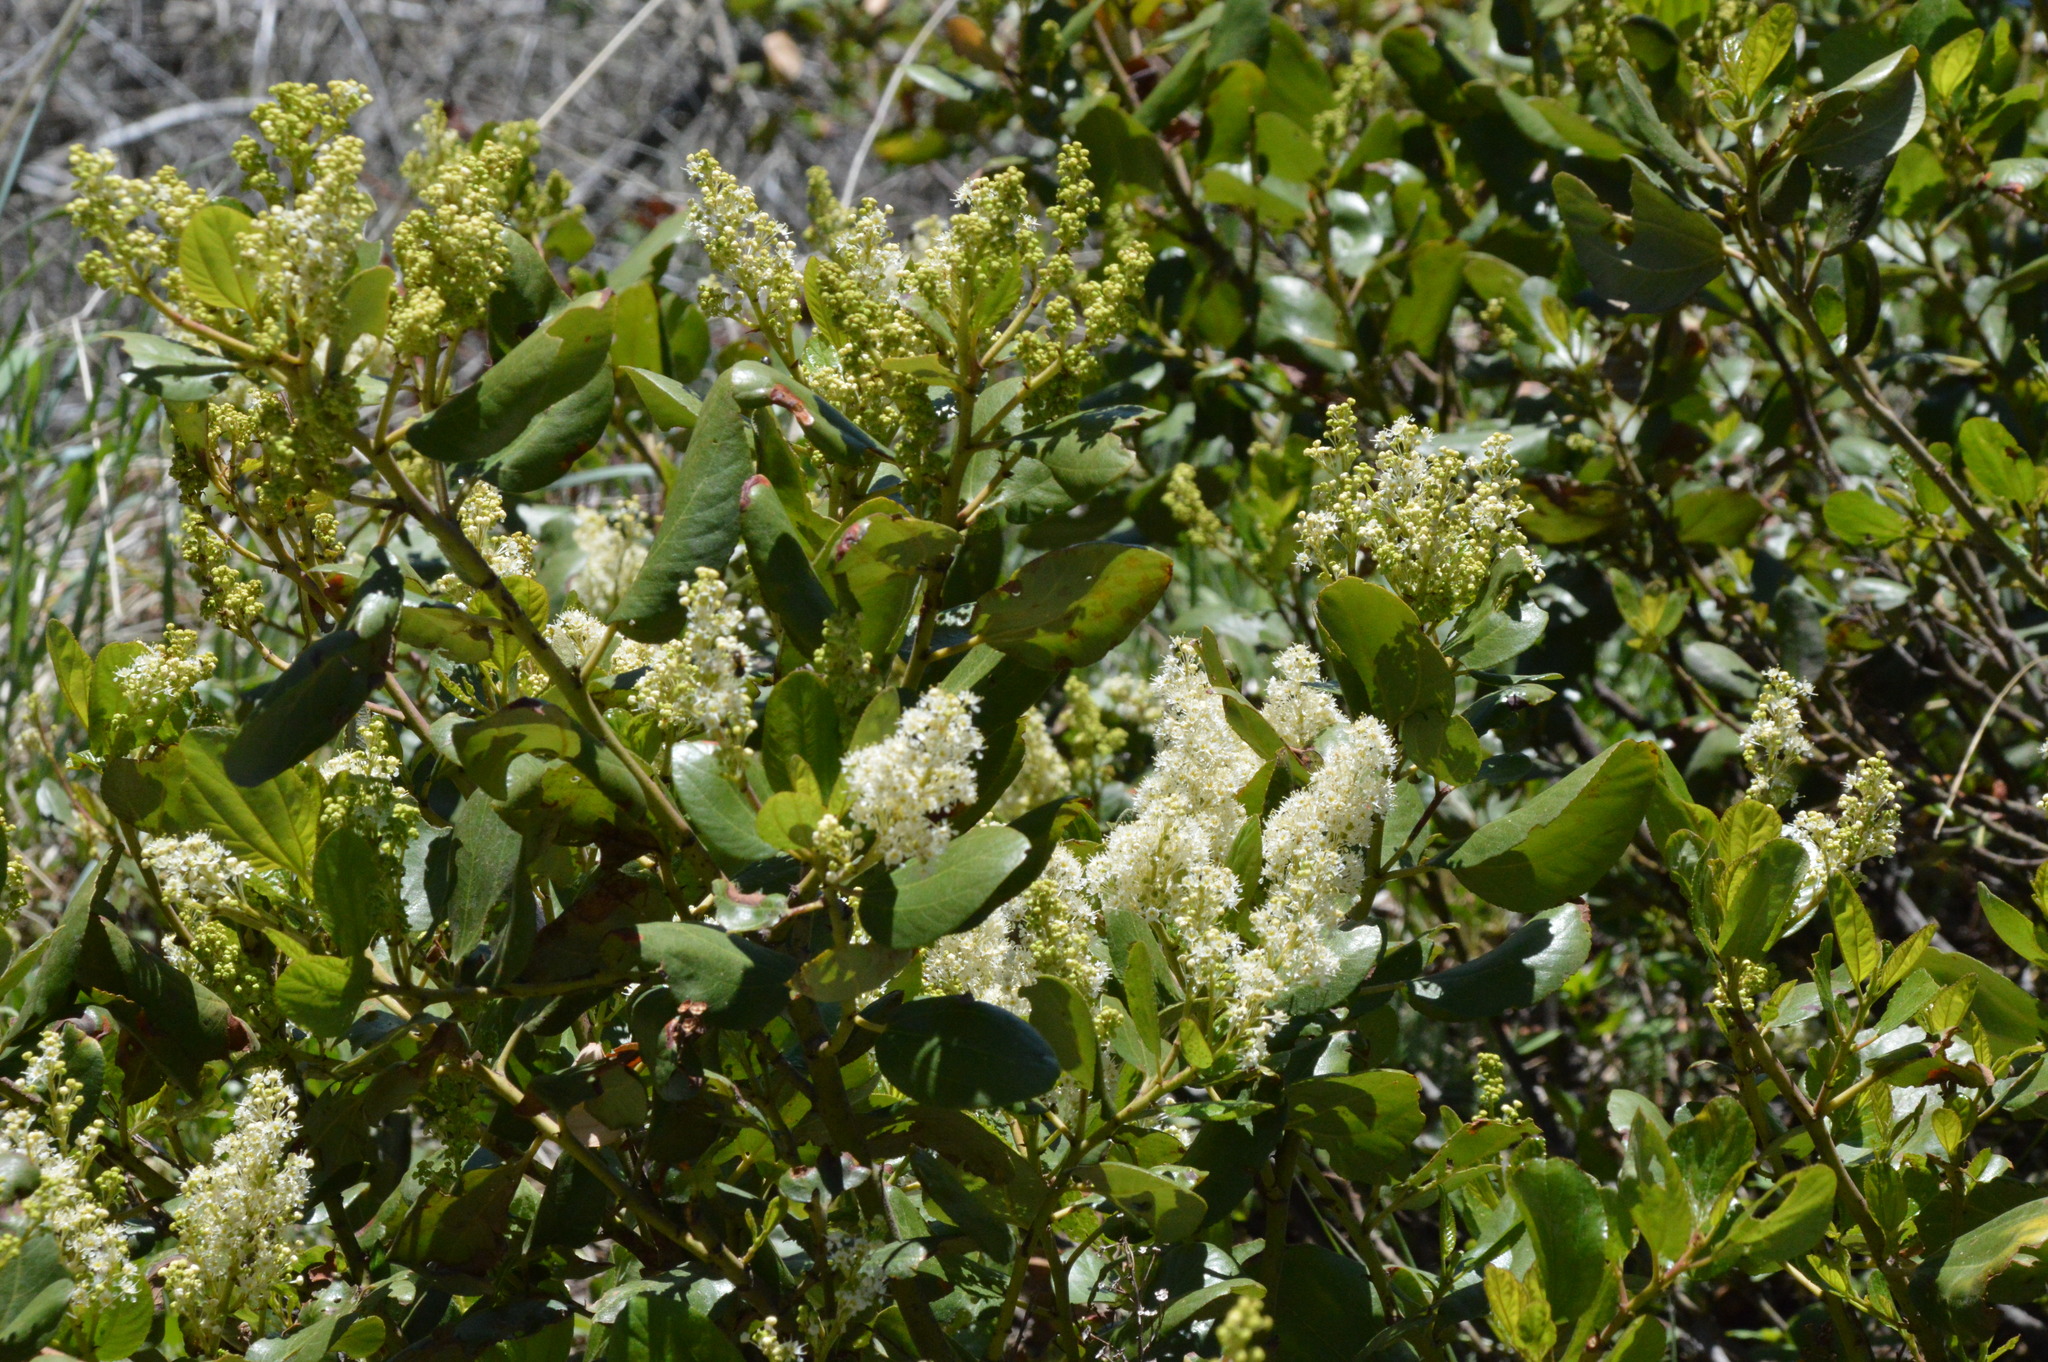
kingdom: Plantae
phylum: Tracheophyta
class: Magnoliopsida
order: Rosales
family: Rhamnaceae
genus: Ceanothus
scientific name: Ceanothus velutinus
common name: Snowbrush
